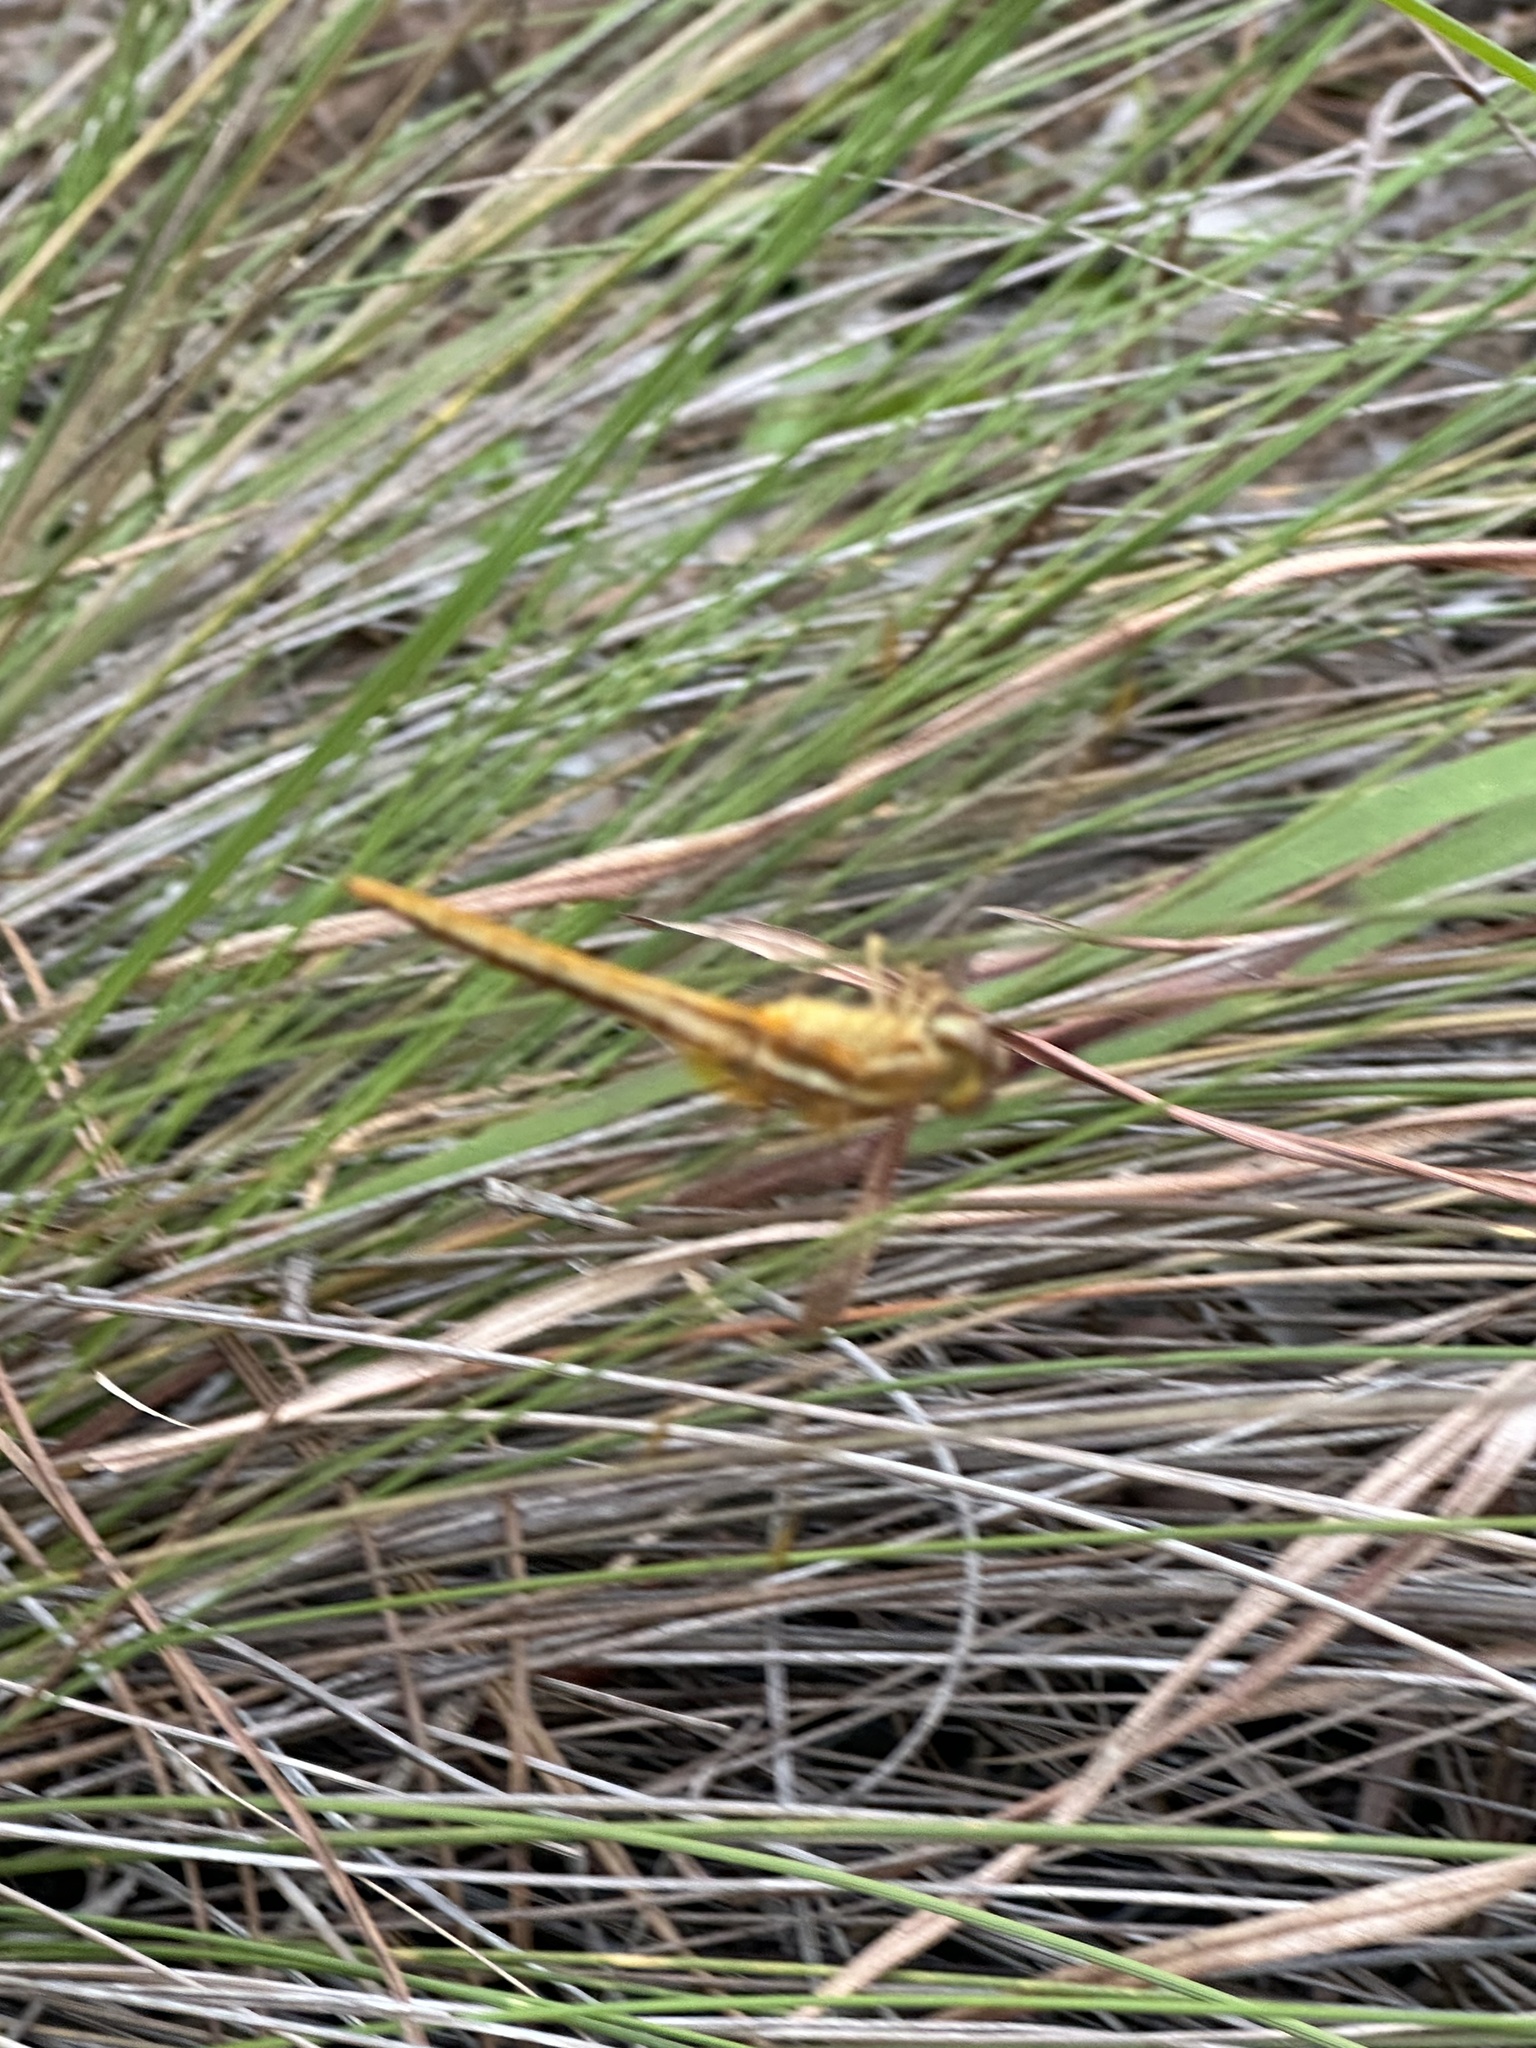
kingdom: Animalia
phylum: Arthropoda
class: Insecta
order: Odonata
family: Libellulidae
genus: Crocothemis
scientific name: Crocothemis servilia
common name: Scarlet skimmer
